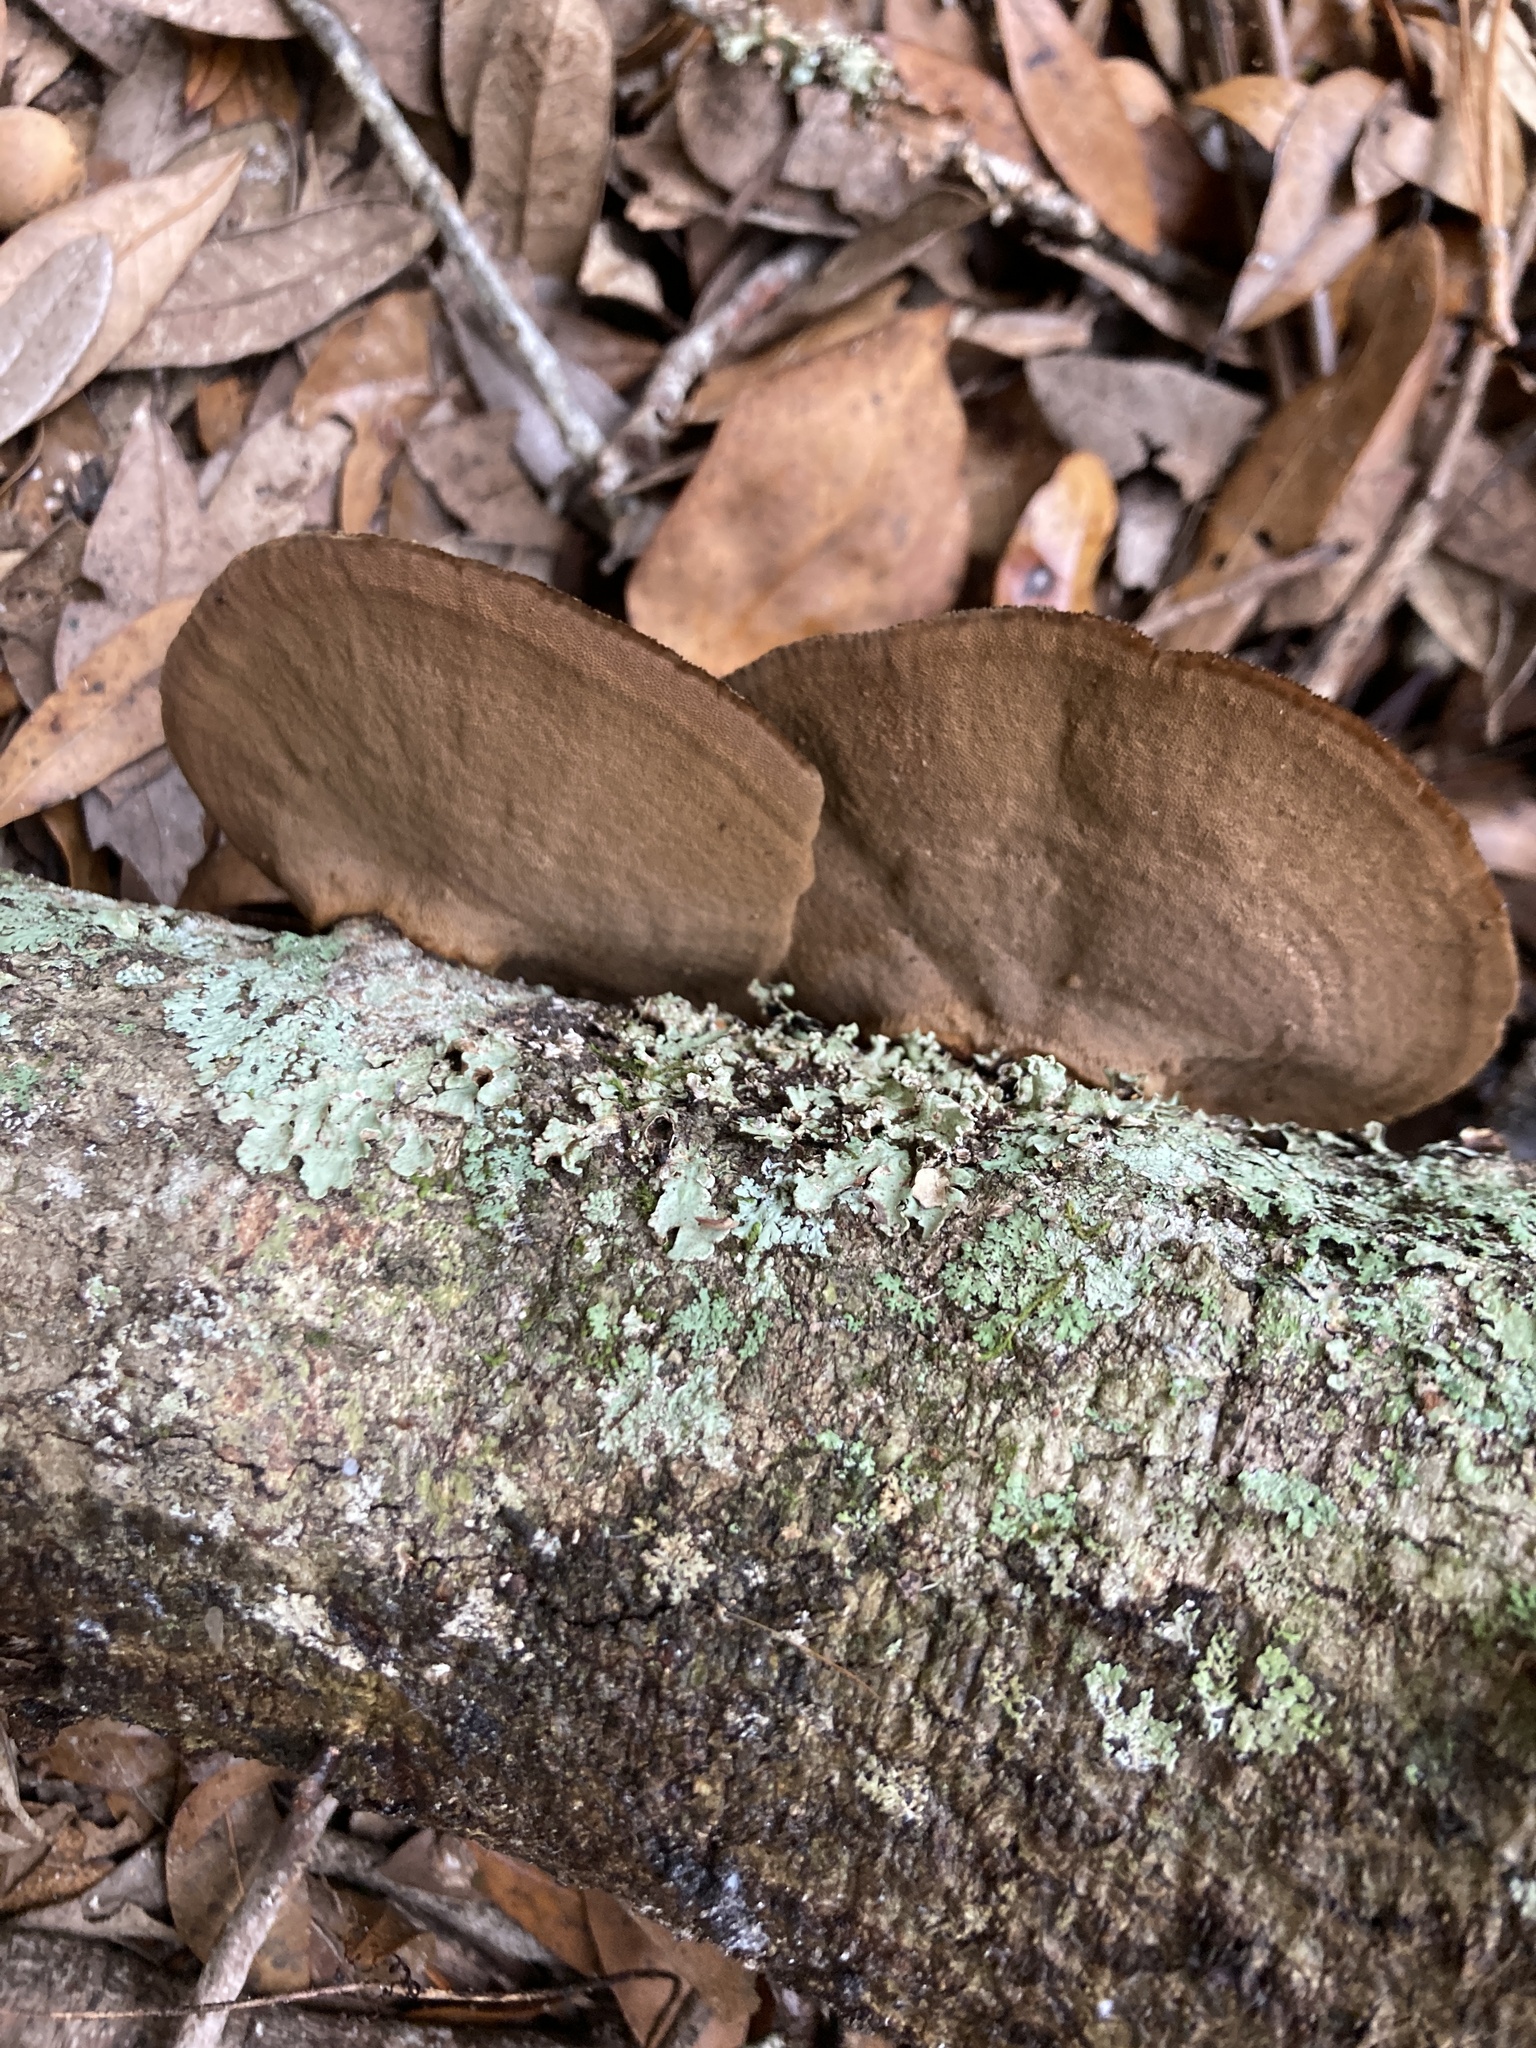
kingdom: Fungi
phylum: Basidiomycota
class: Agaricomycetes
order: Polyporales
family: Cerrenaceae
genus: Cerrena
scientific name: Cerrena hydnoides
